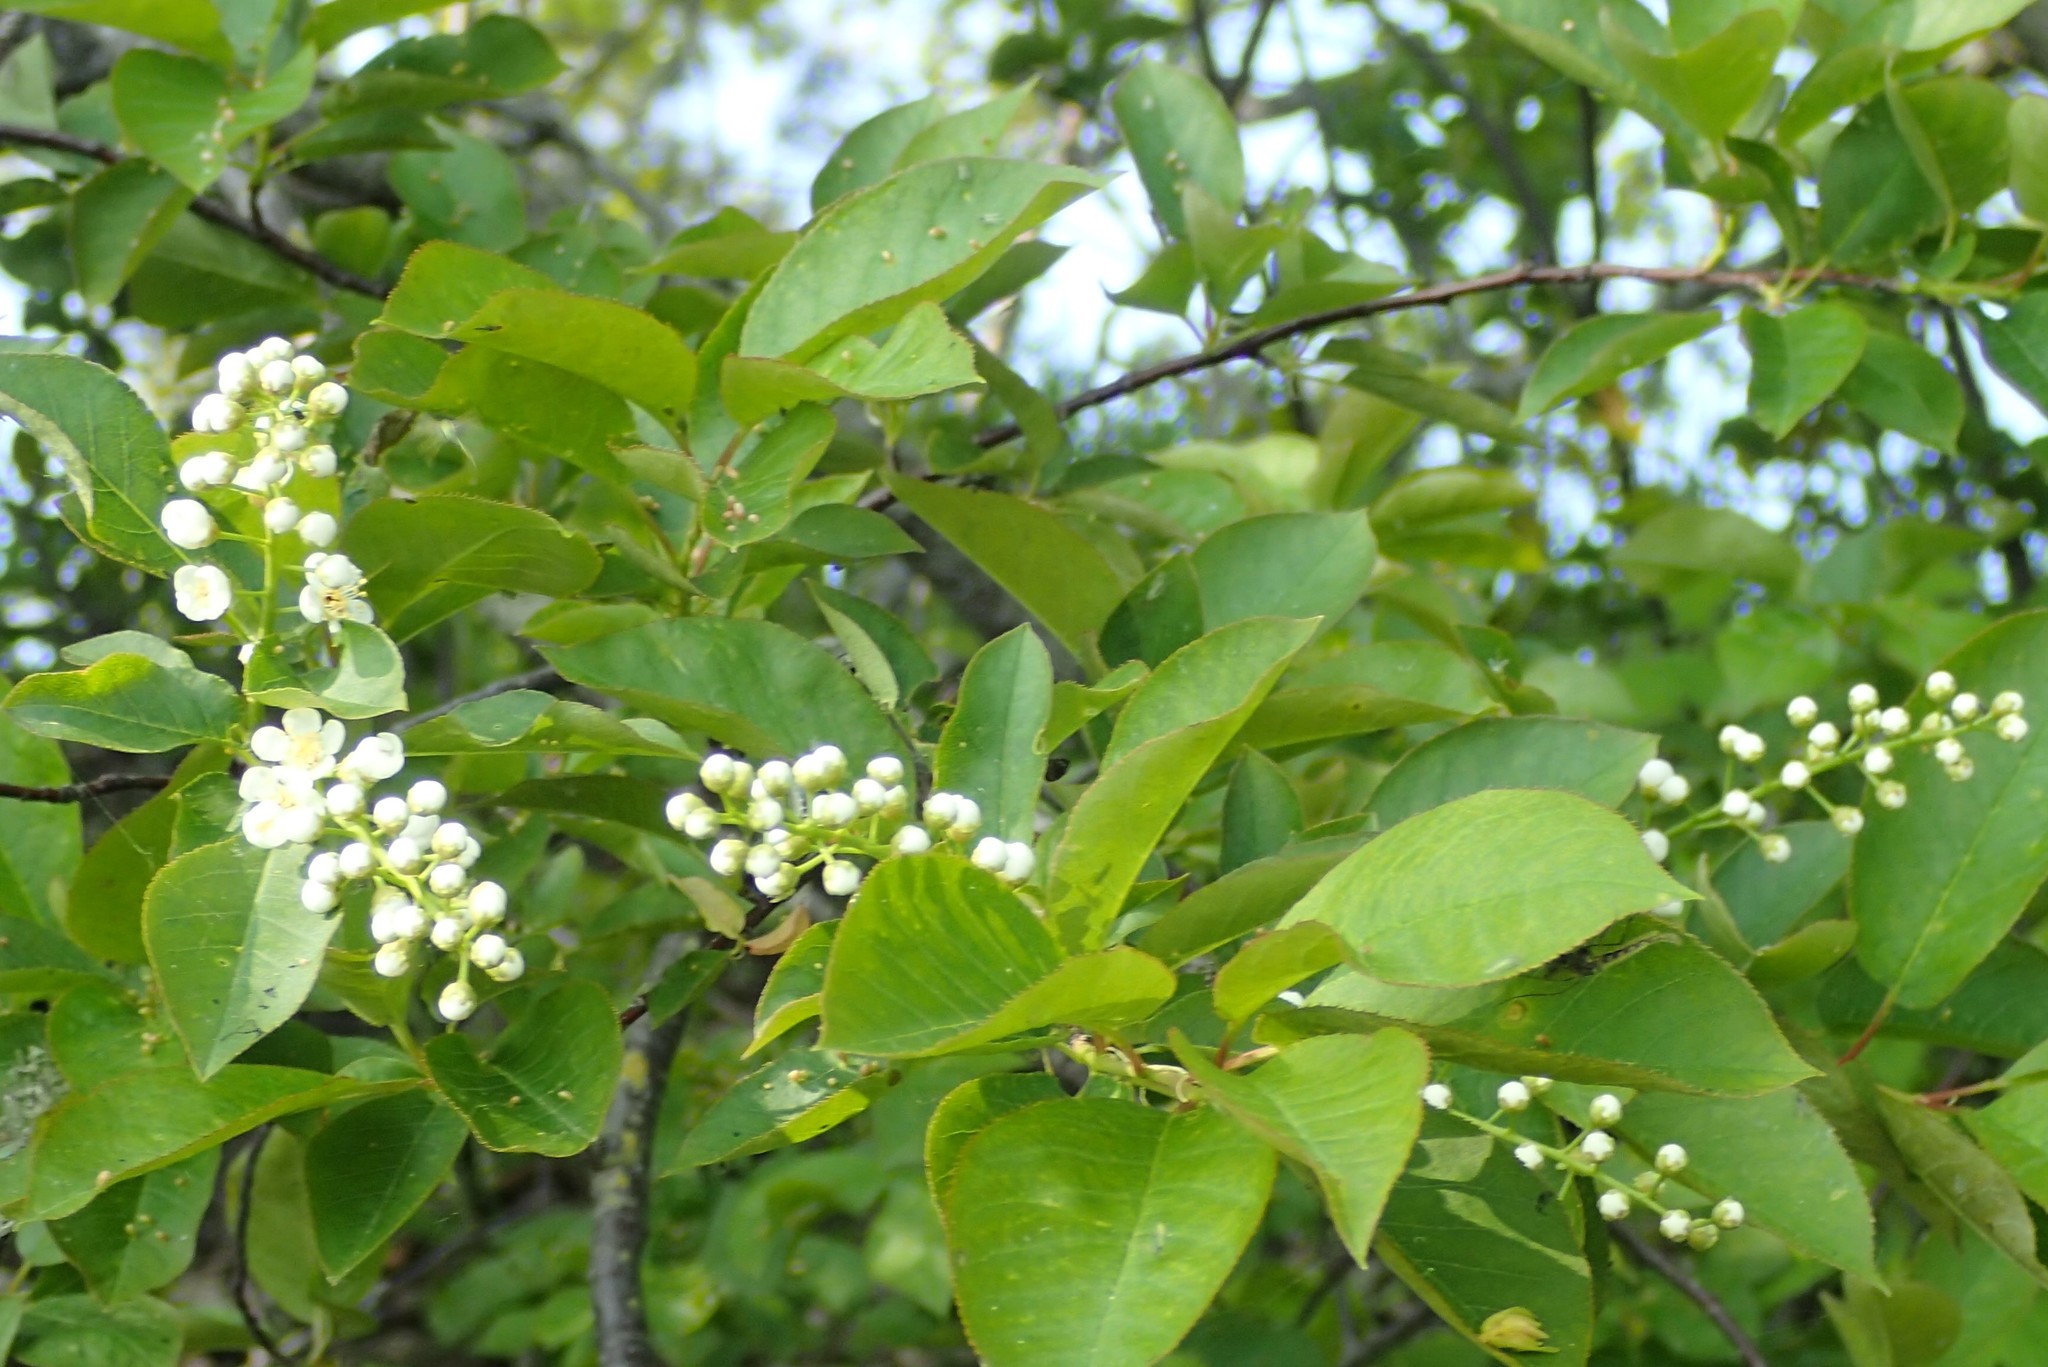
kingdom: Plantae
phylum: Tracheophyta
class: Magnoliopsida
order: Rosales
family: Rosaceae
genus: Prunus
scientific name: Prunus virginiana
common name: Chokecherry
